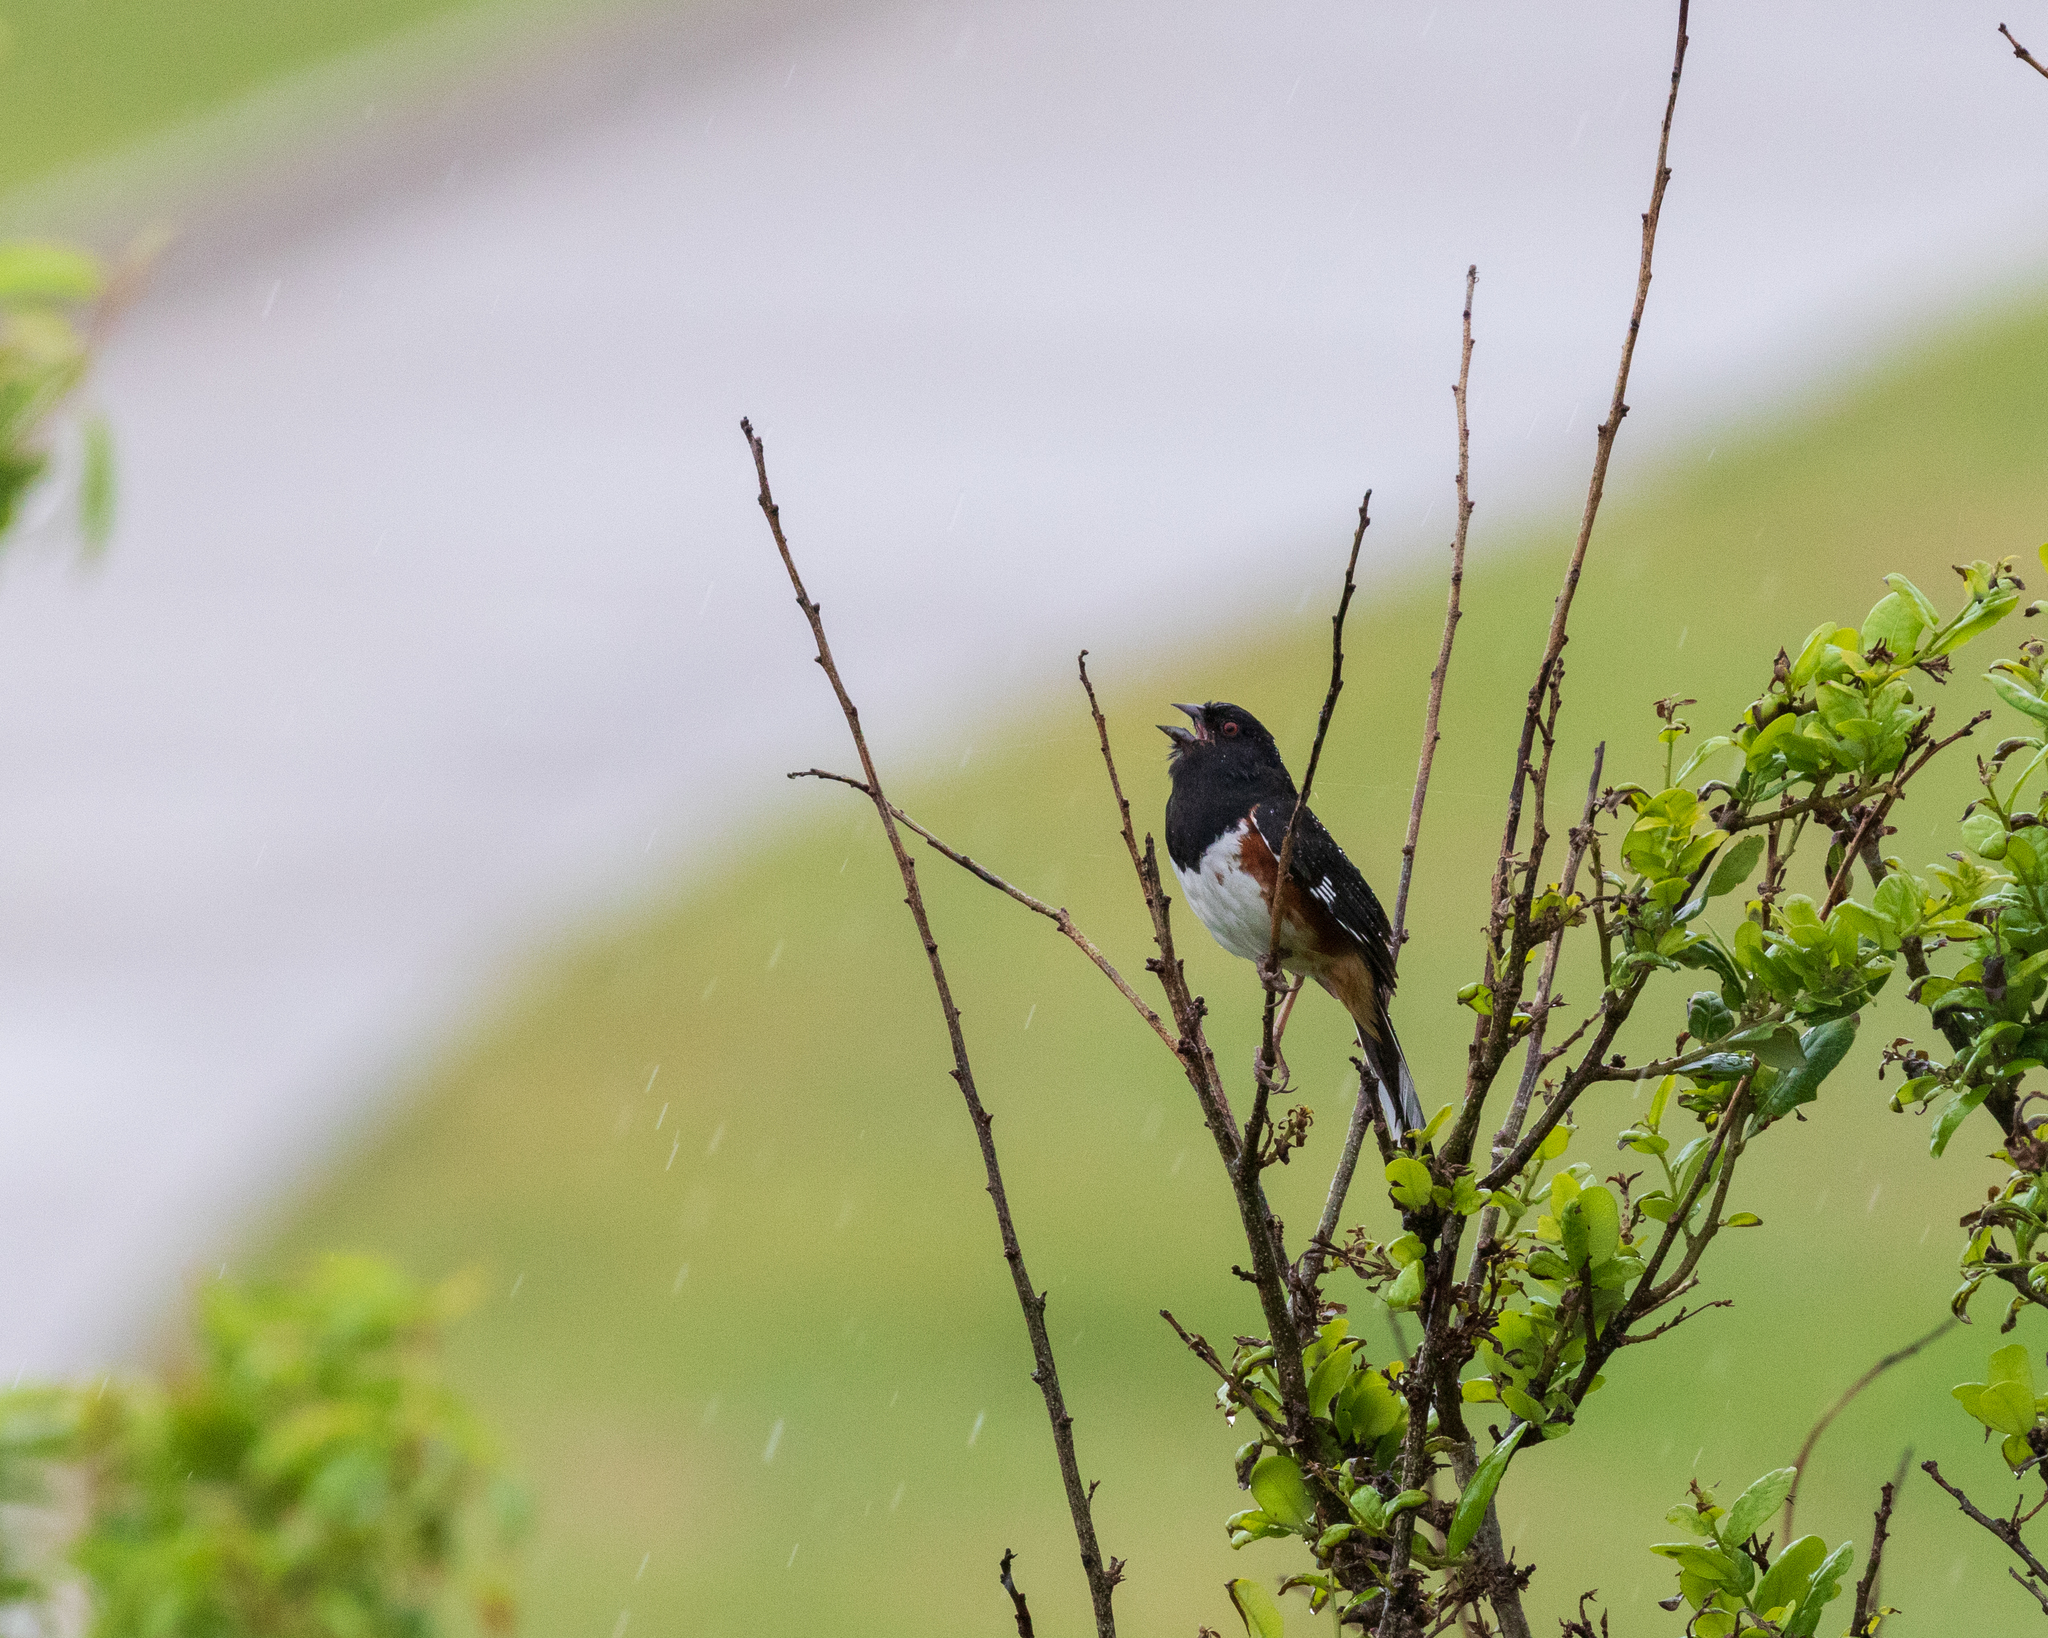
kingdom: Animalia
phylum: Chordata
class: Aves
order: Passeriformes
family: Passerellidae
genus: Pipilo
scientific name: Pipilo erythrophthalmus
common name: Eastern towhee
